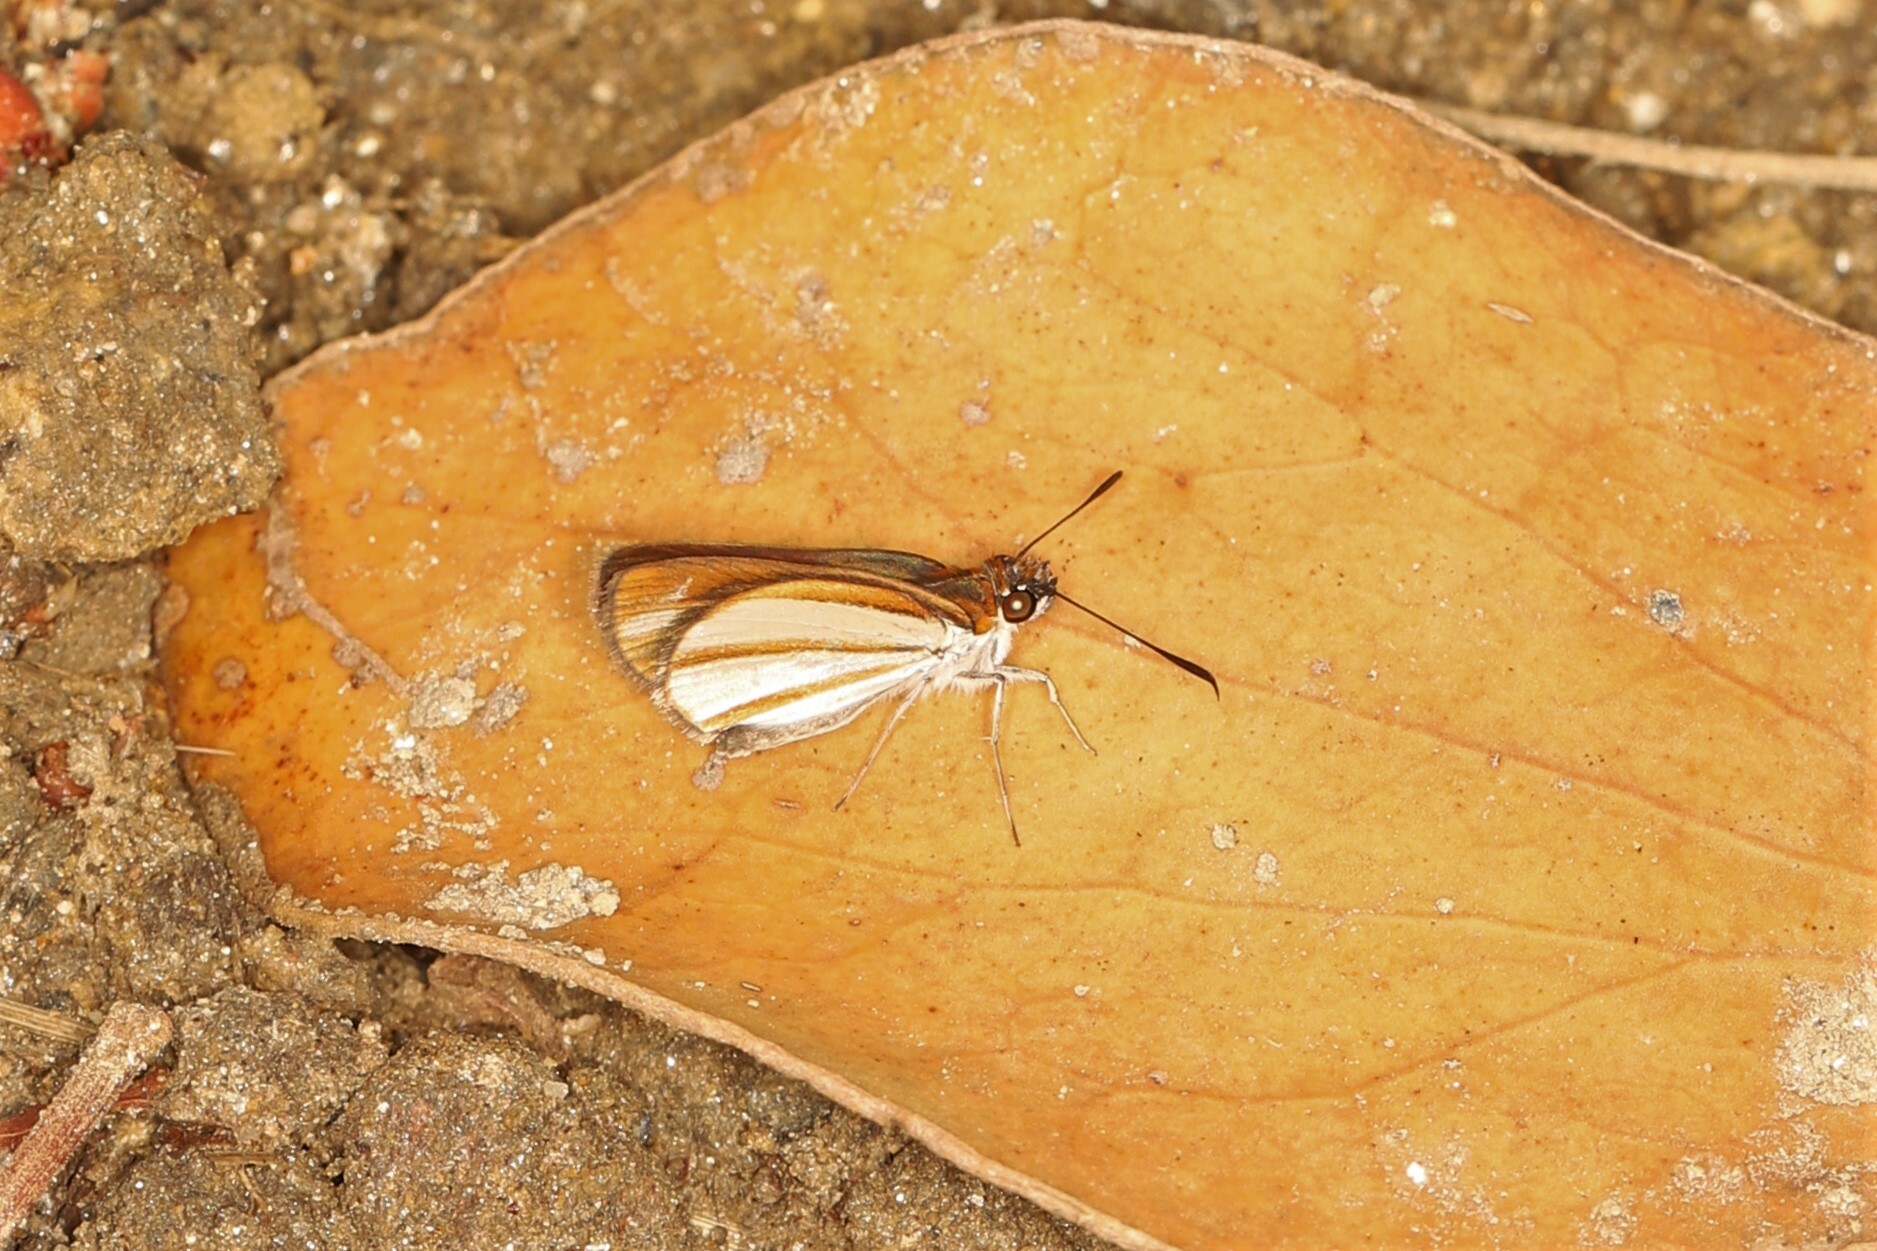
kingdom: Animalia
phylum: Arthropoda
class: Insecta
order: Lepidoptera
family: Hesperiidae
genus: Corra
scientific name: Corra
